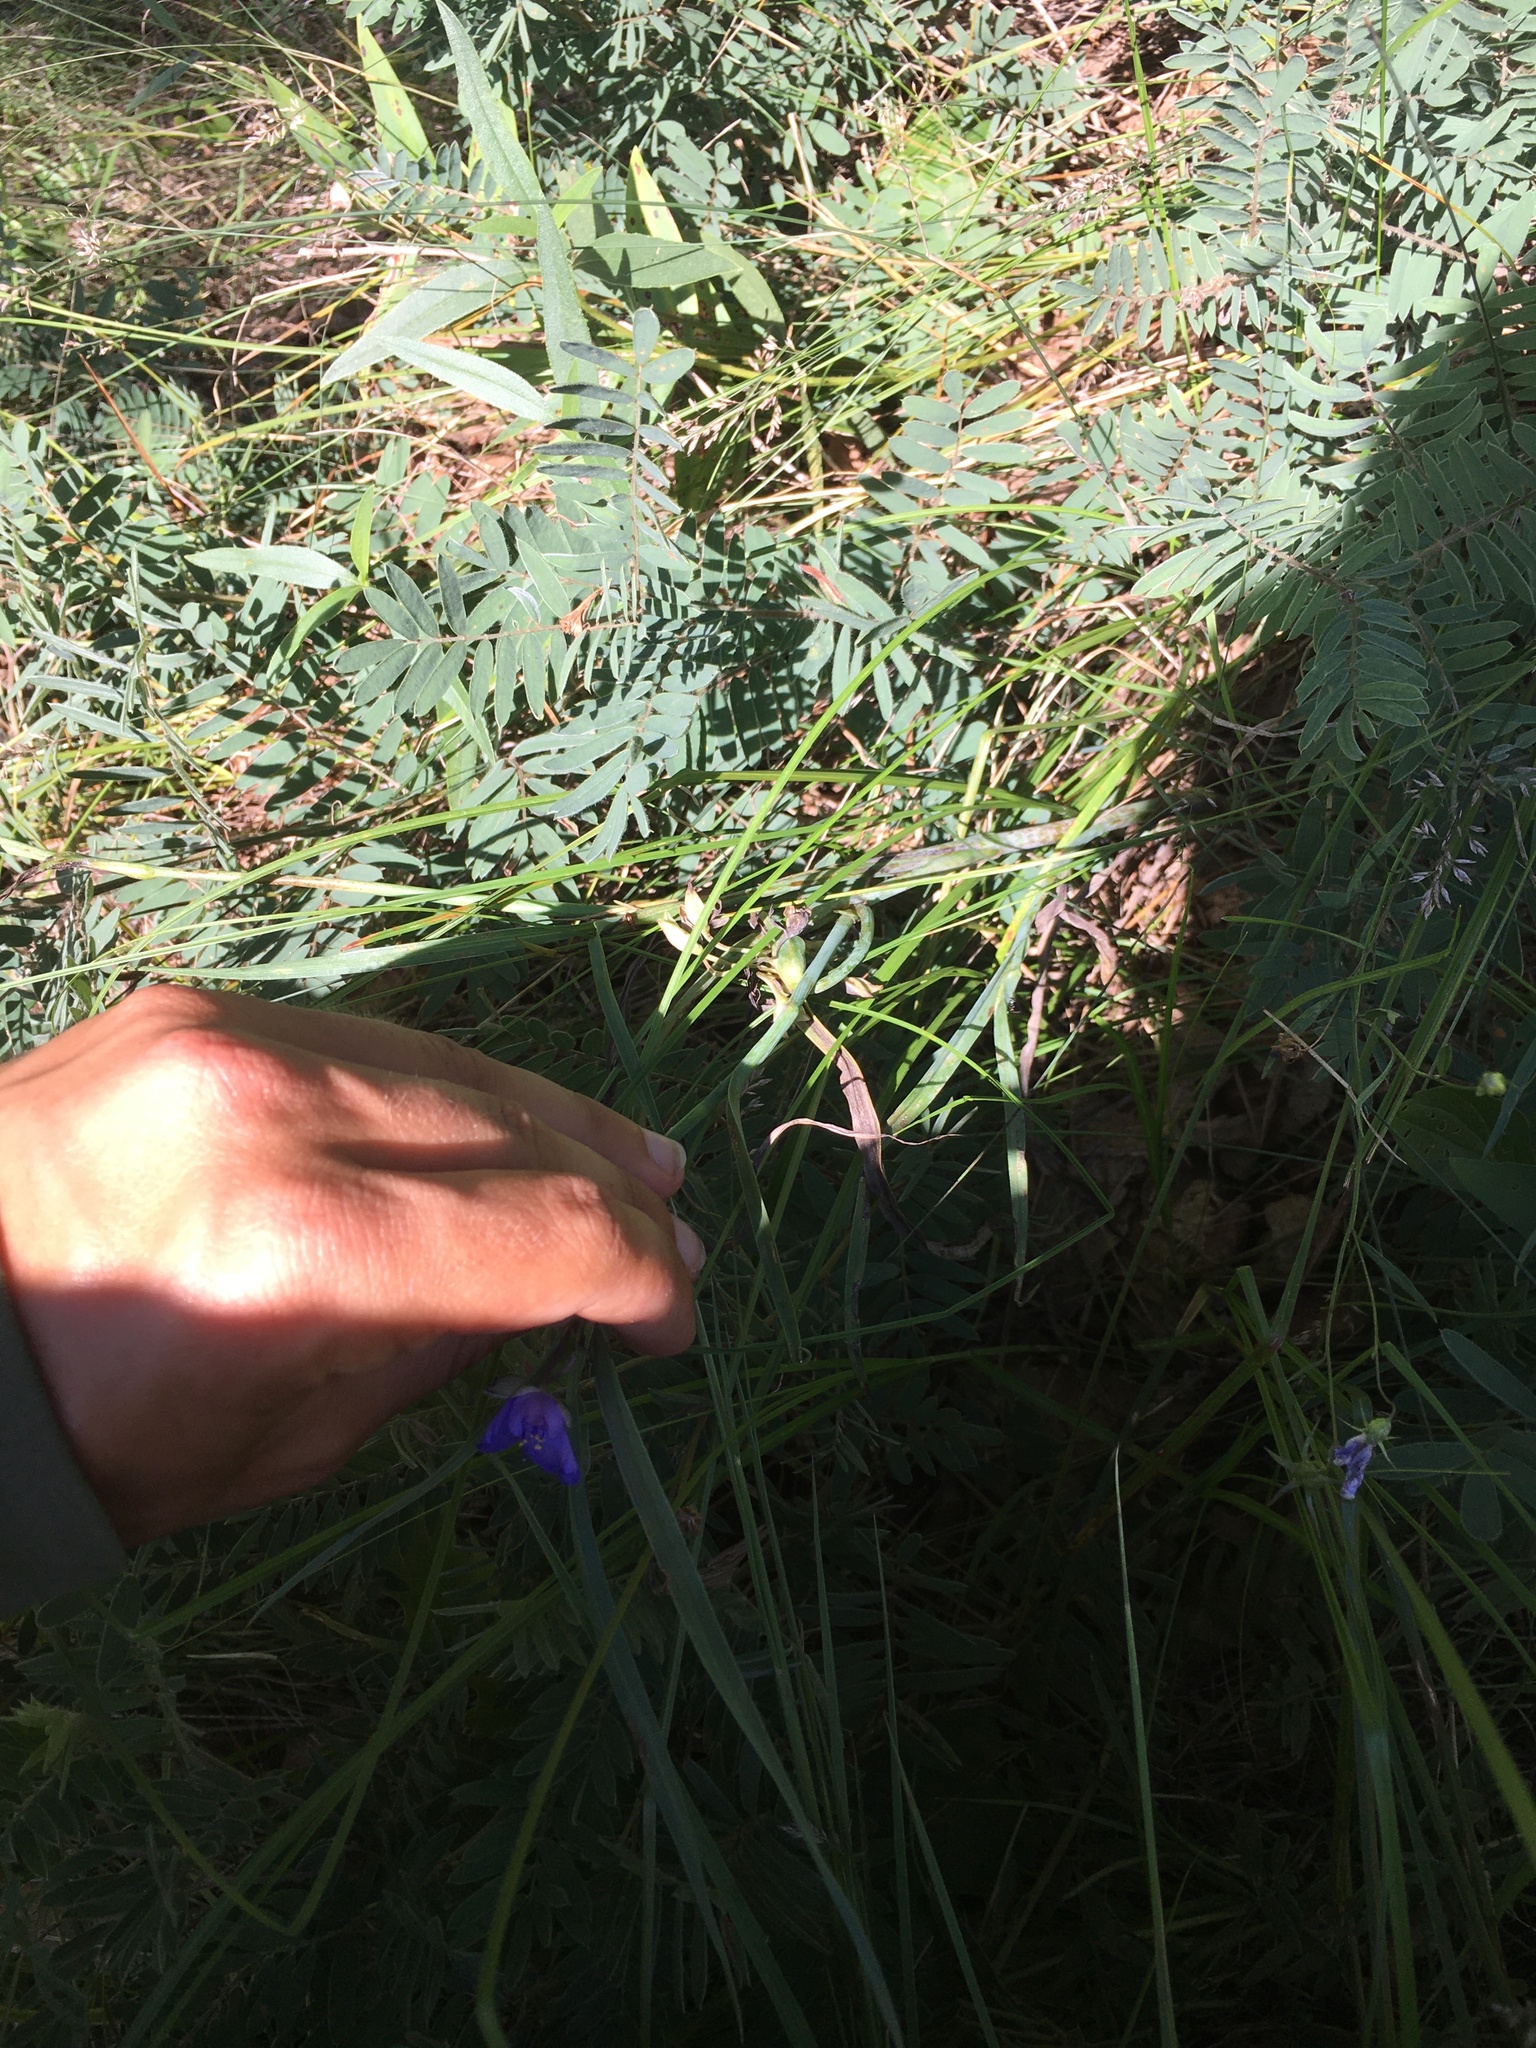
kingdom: Plantae
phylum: Tracheophyta
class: Liliopsida
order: Commelinales
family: Commelinaceae
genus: Tradescantia
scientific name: Tradescantia ohiensis
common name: Ohio spiderwort
